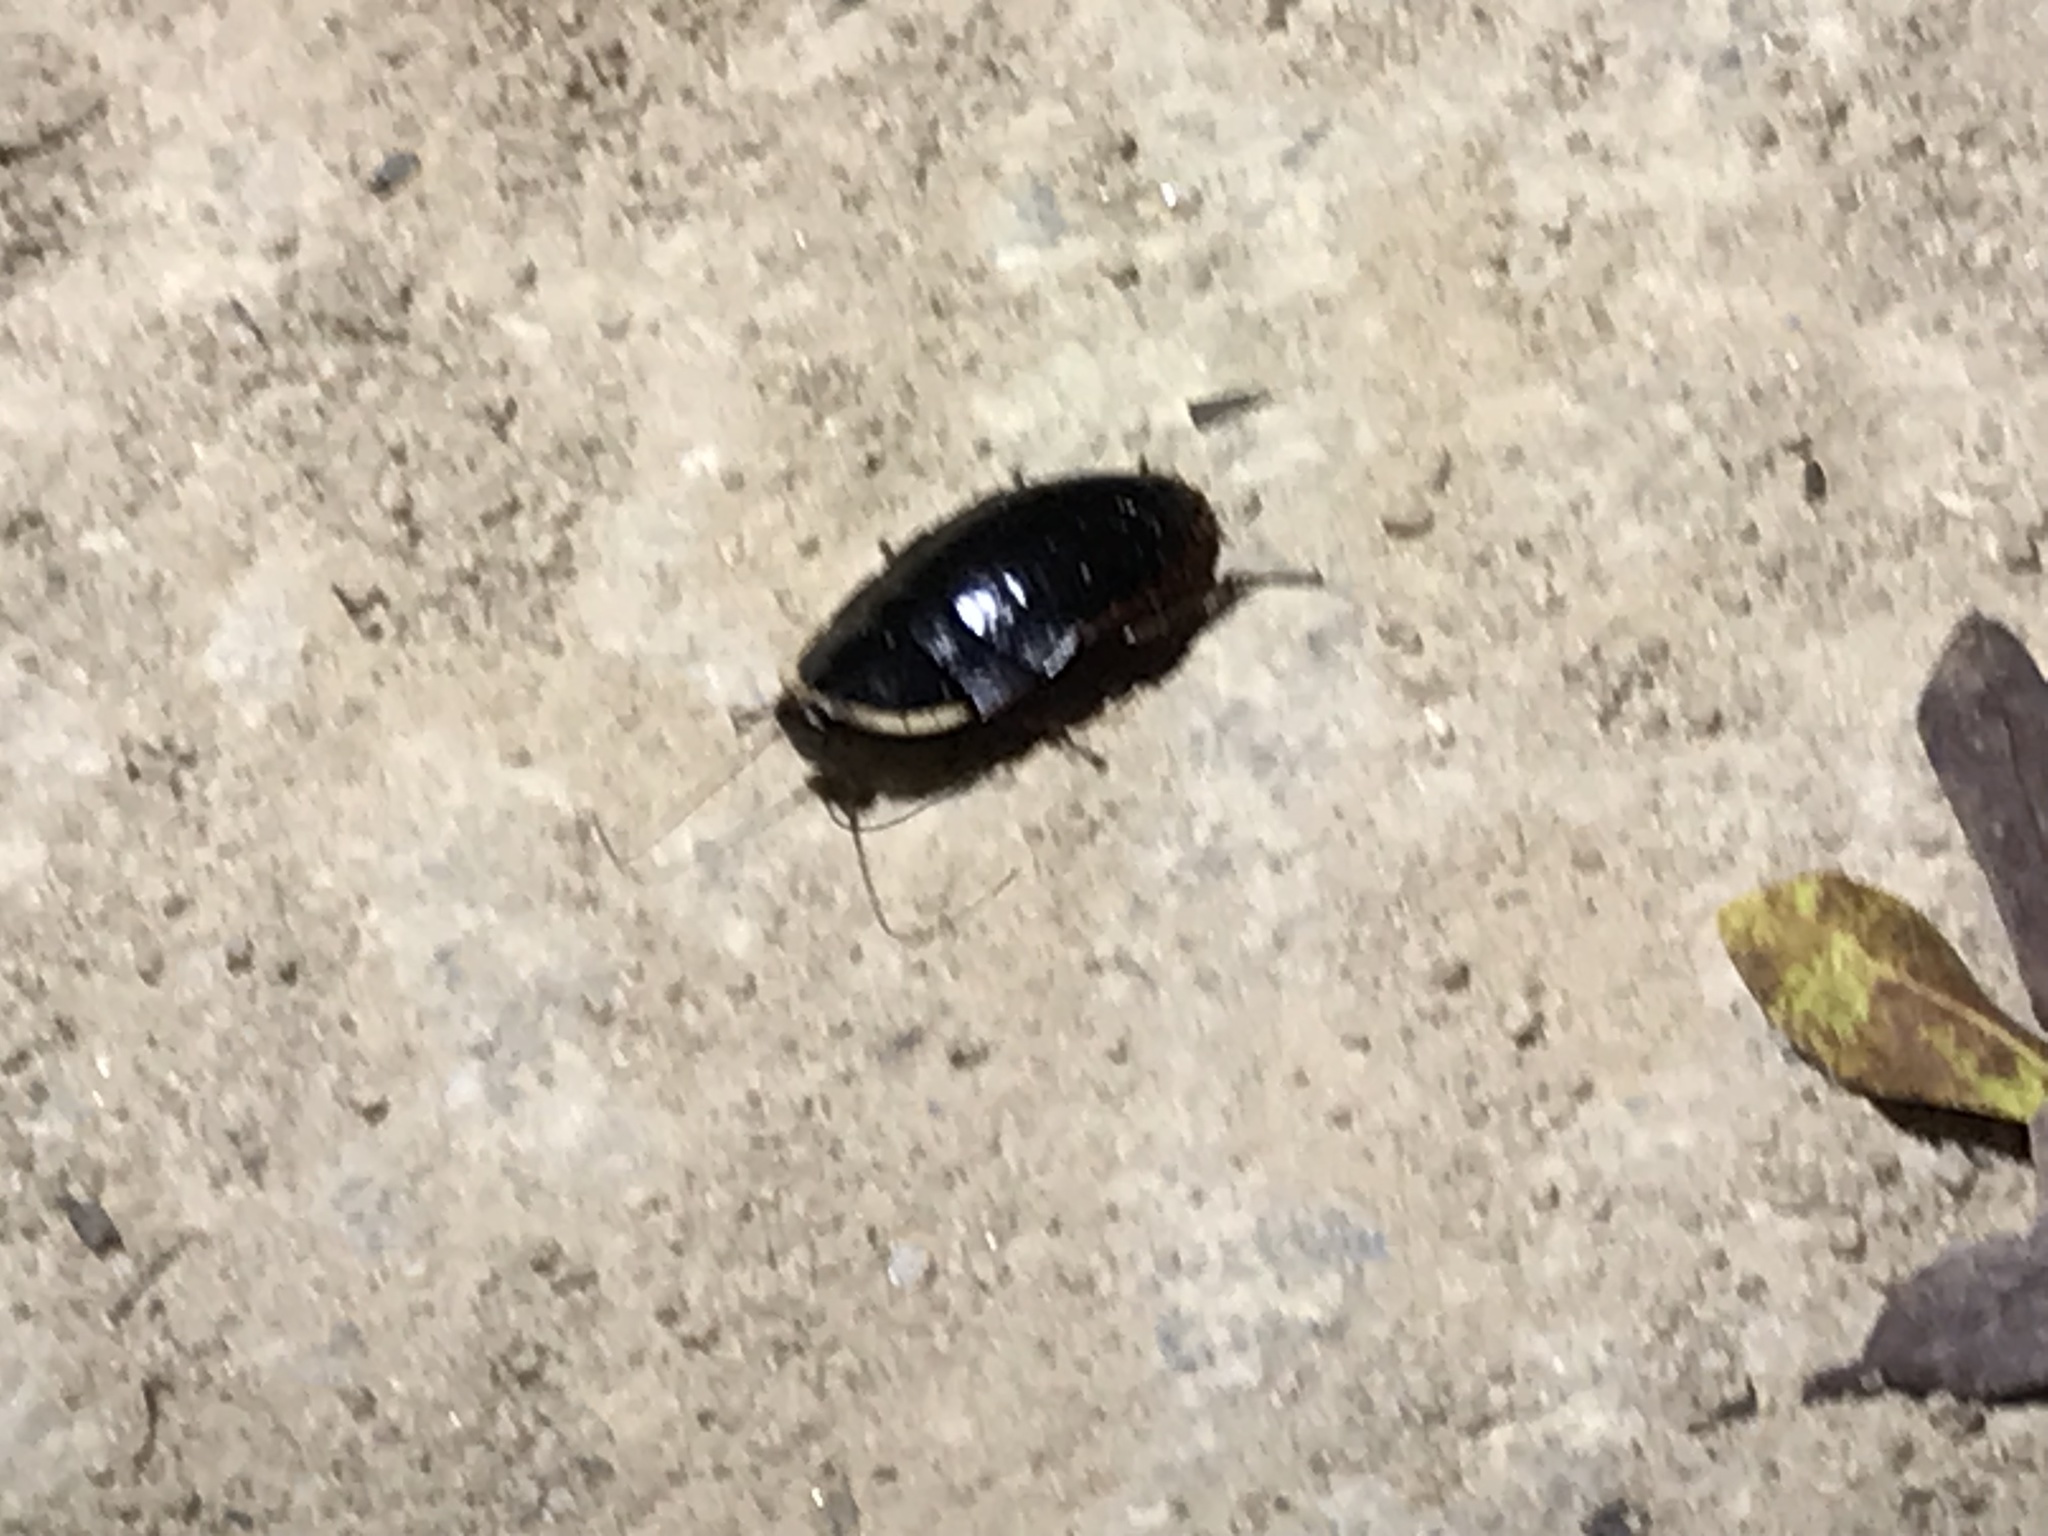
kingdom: Animalia
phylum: Arthropoda
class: Insecta
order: Blattodea
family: Blaberidae
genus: Opisthoplatia
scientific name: Opisthoplatia orientalis
